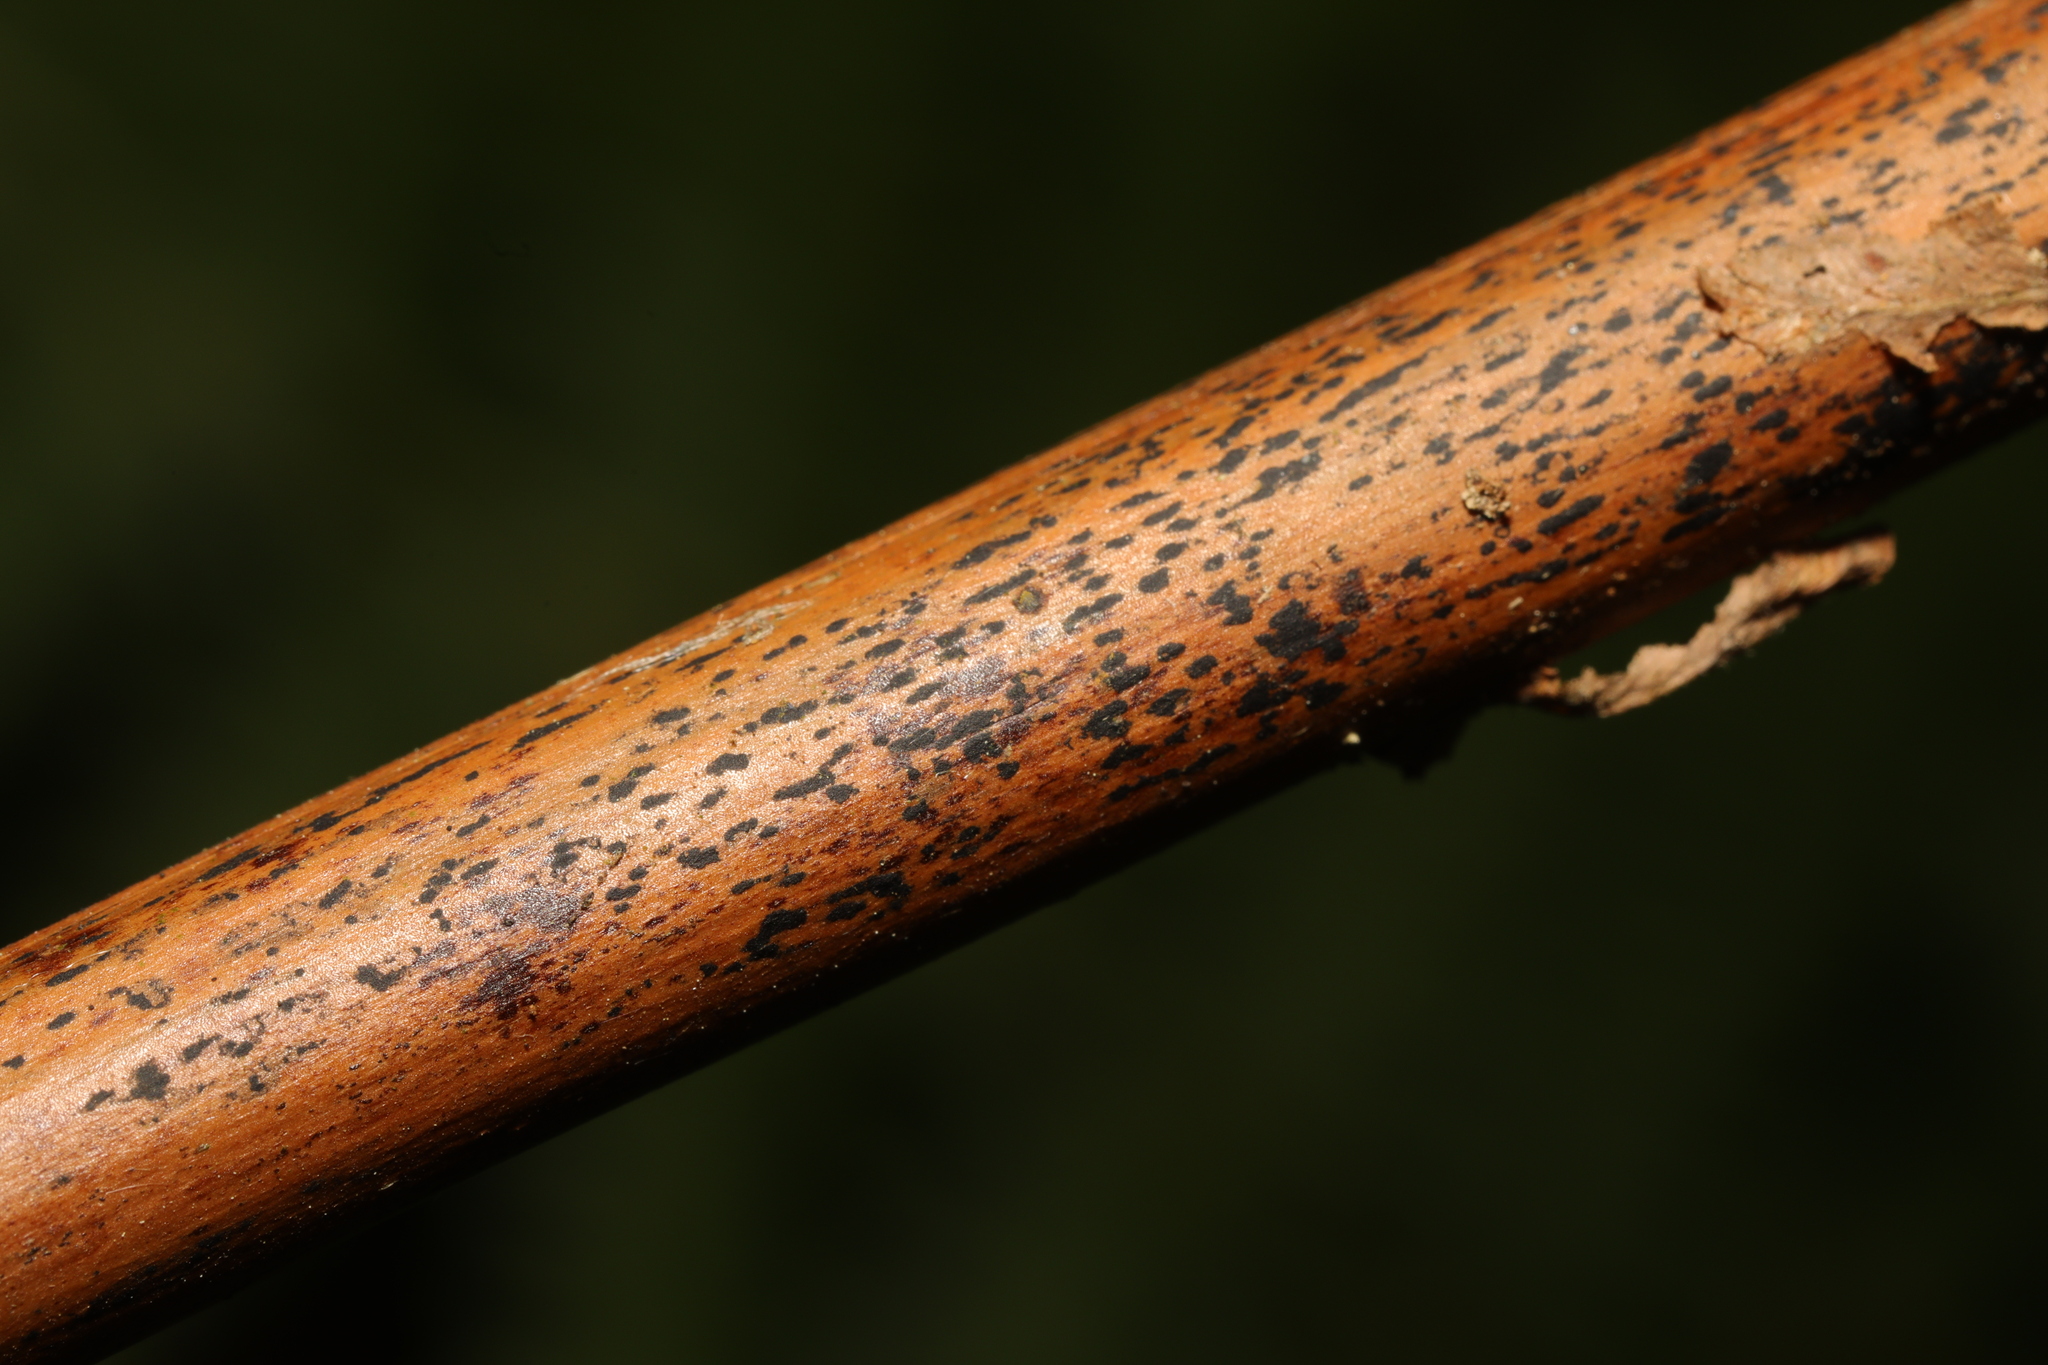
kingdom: Fungi
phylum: Ascomycota
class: Dothideomycetes
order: Pleosporales
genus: Rhopographus
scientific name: Rhopographus filicinus
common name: Bracken map
